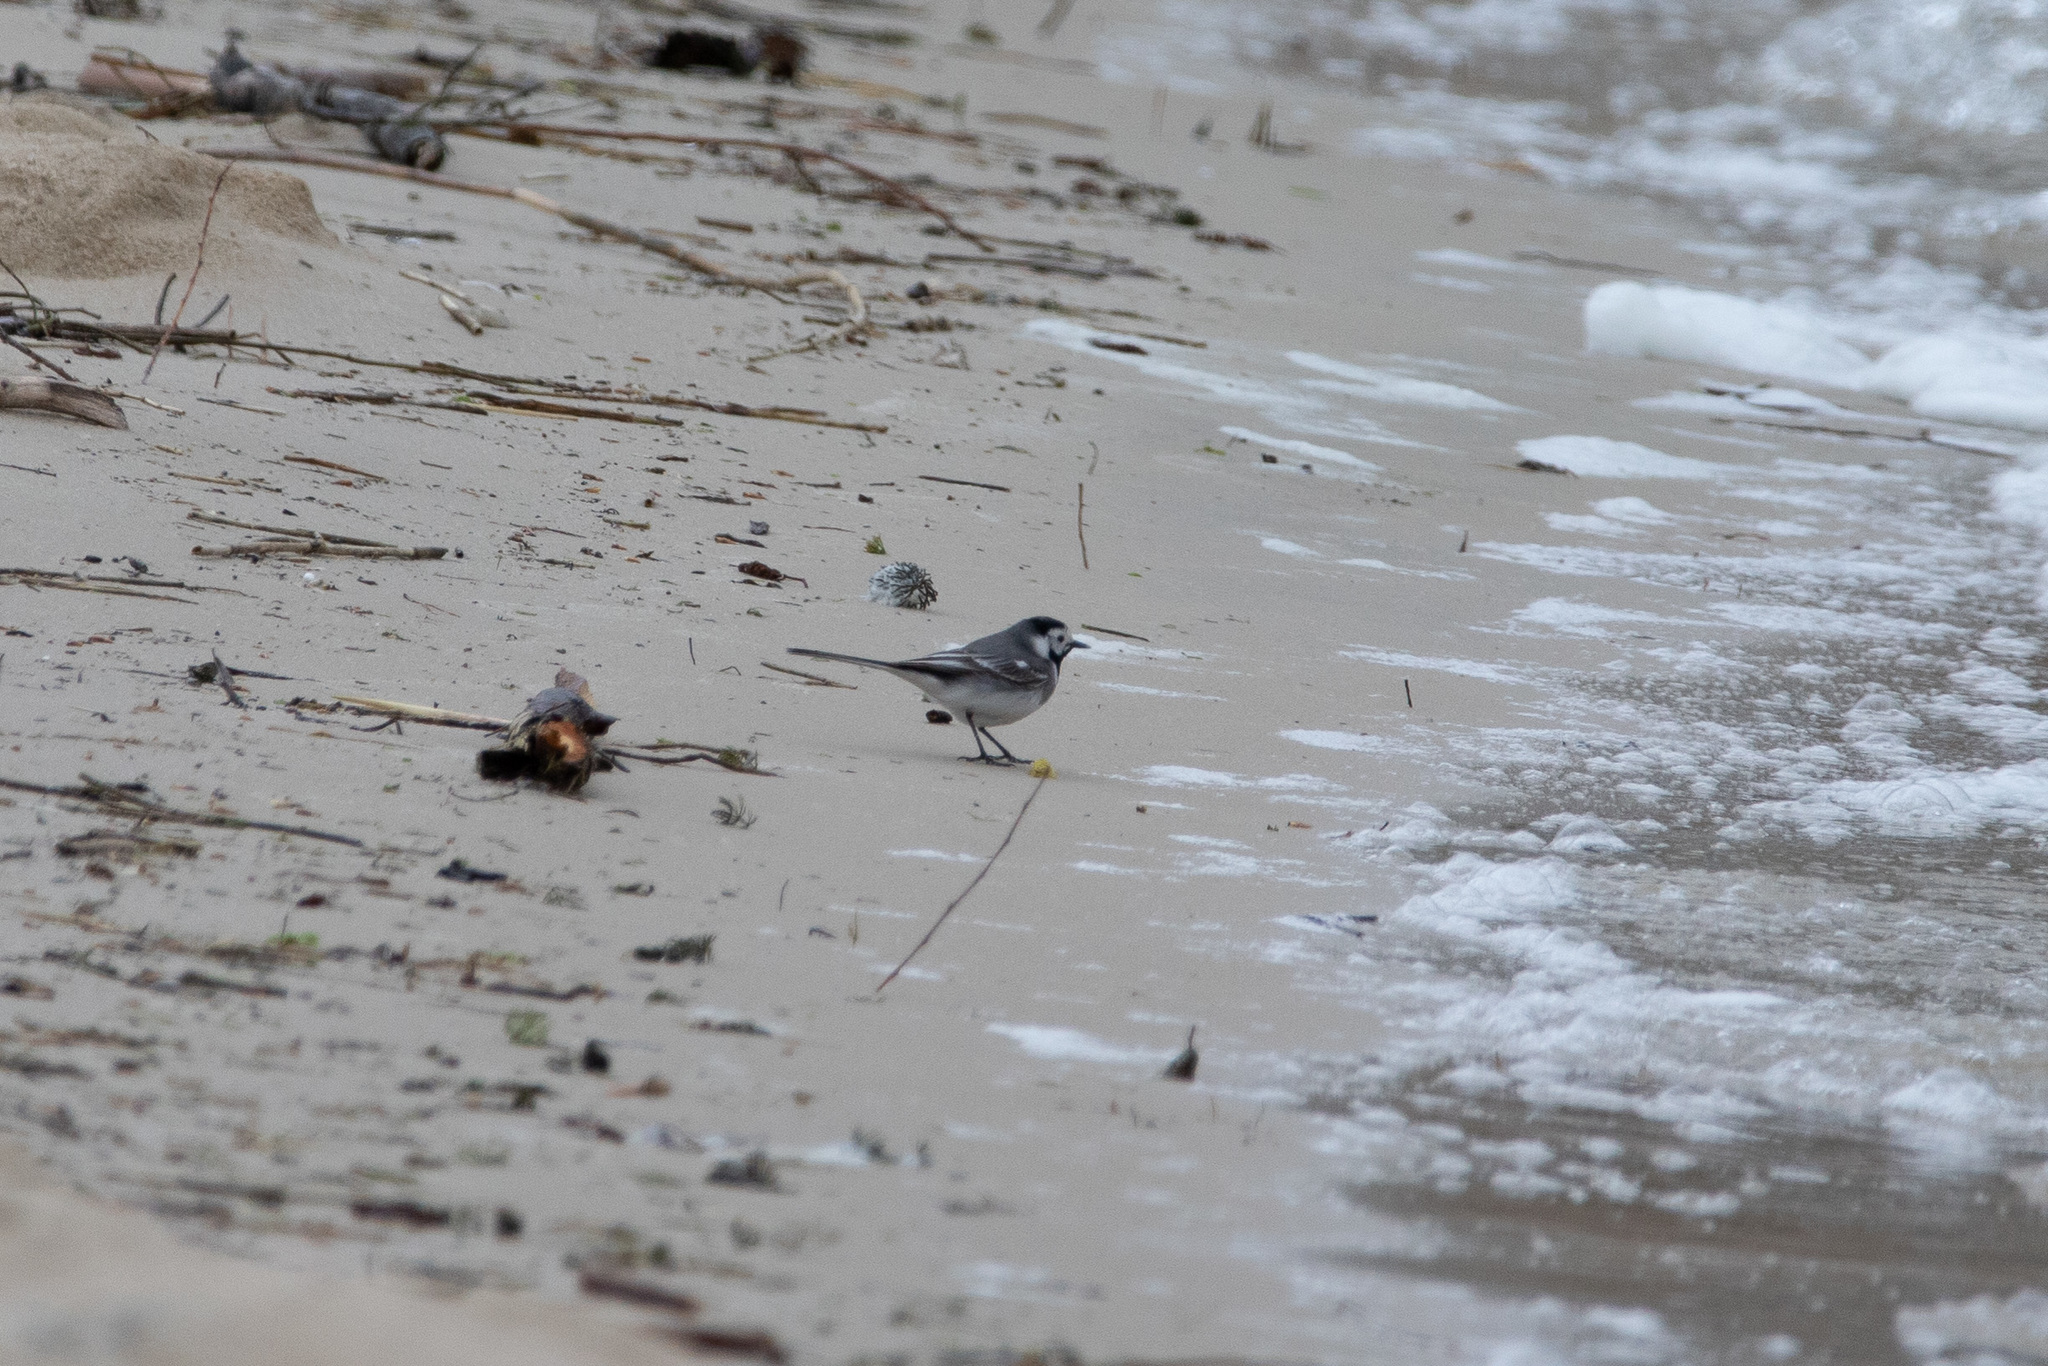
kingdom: Animalia
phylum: Chordata
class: Aves
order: Passeriformes
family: Motacillidae
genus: Motacilla
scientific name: Motacilla alba
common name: White wagtail
